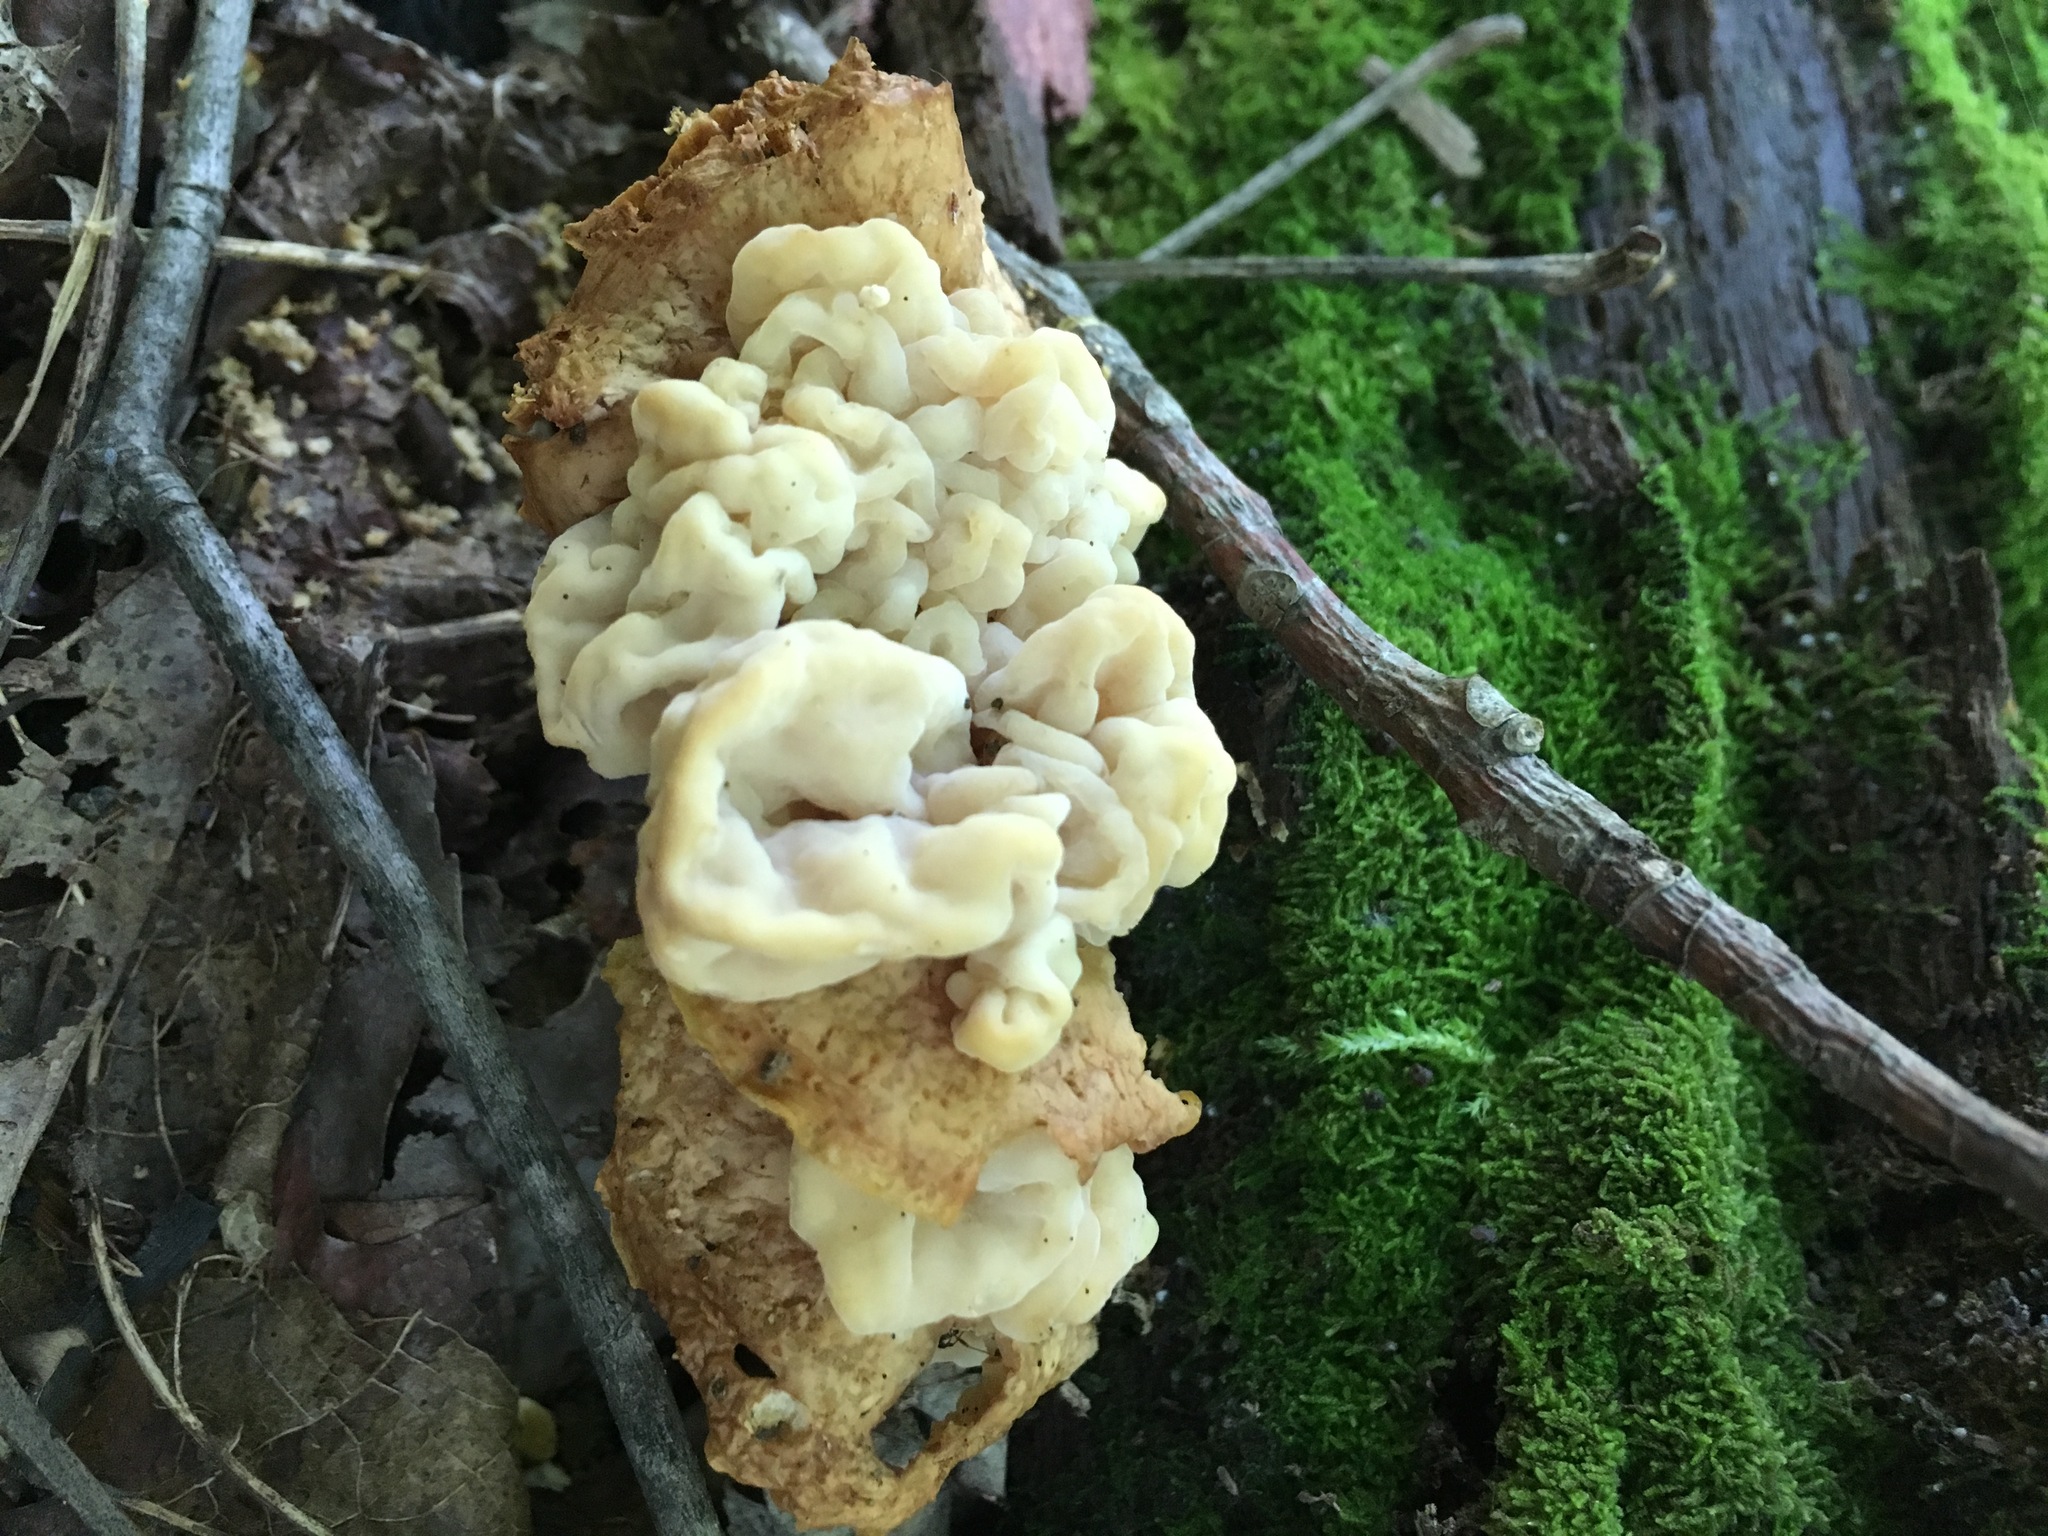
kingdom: Fungi
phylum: Basidiomycota
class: Tremellomycetes
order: Filobasidiales
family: Filobasidiaceae
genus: Syzygospora
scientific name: Syzygospora mycetophila
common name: Collybia clouds
